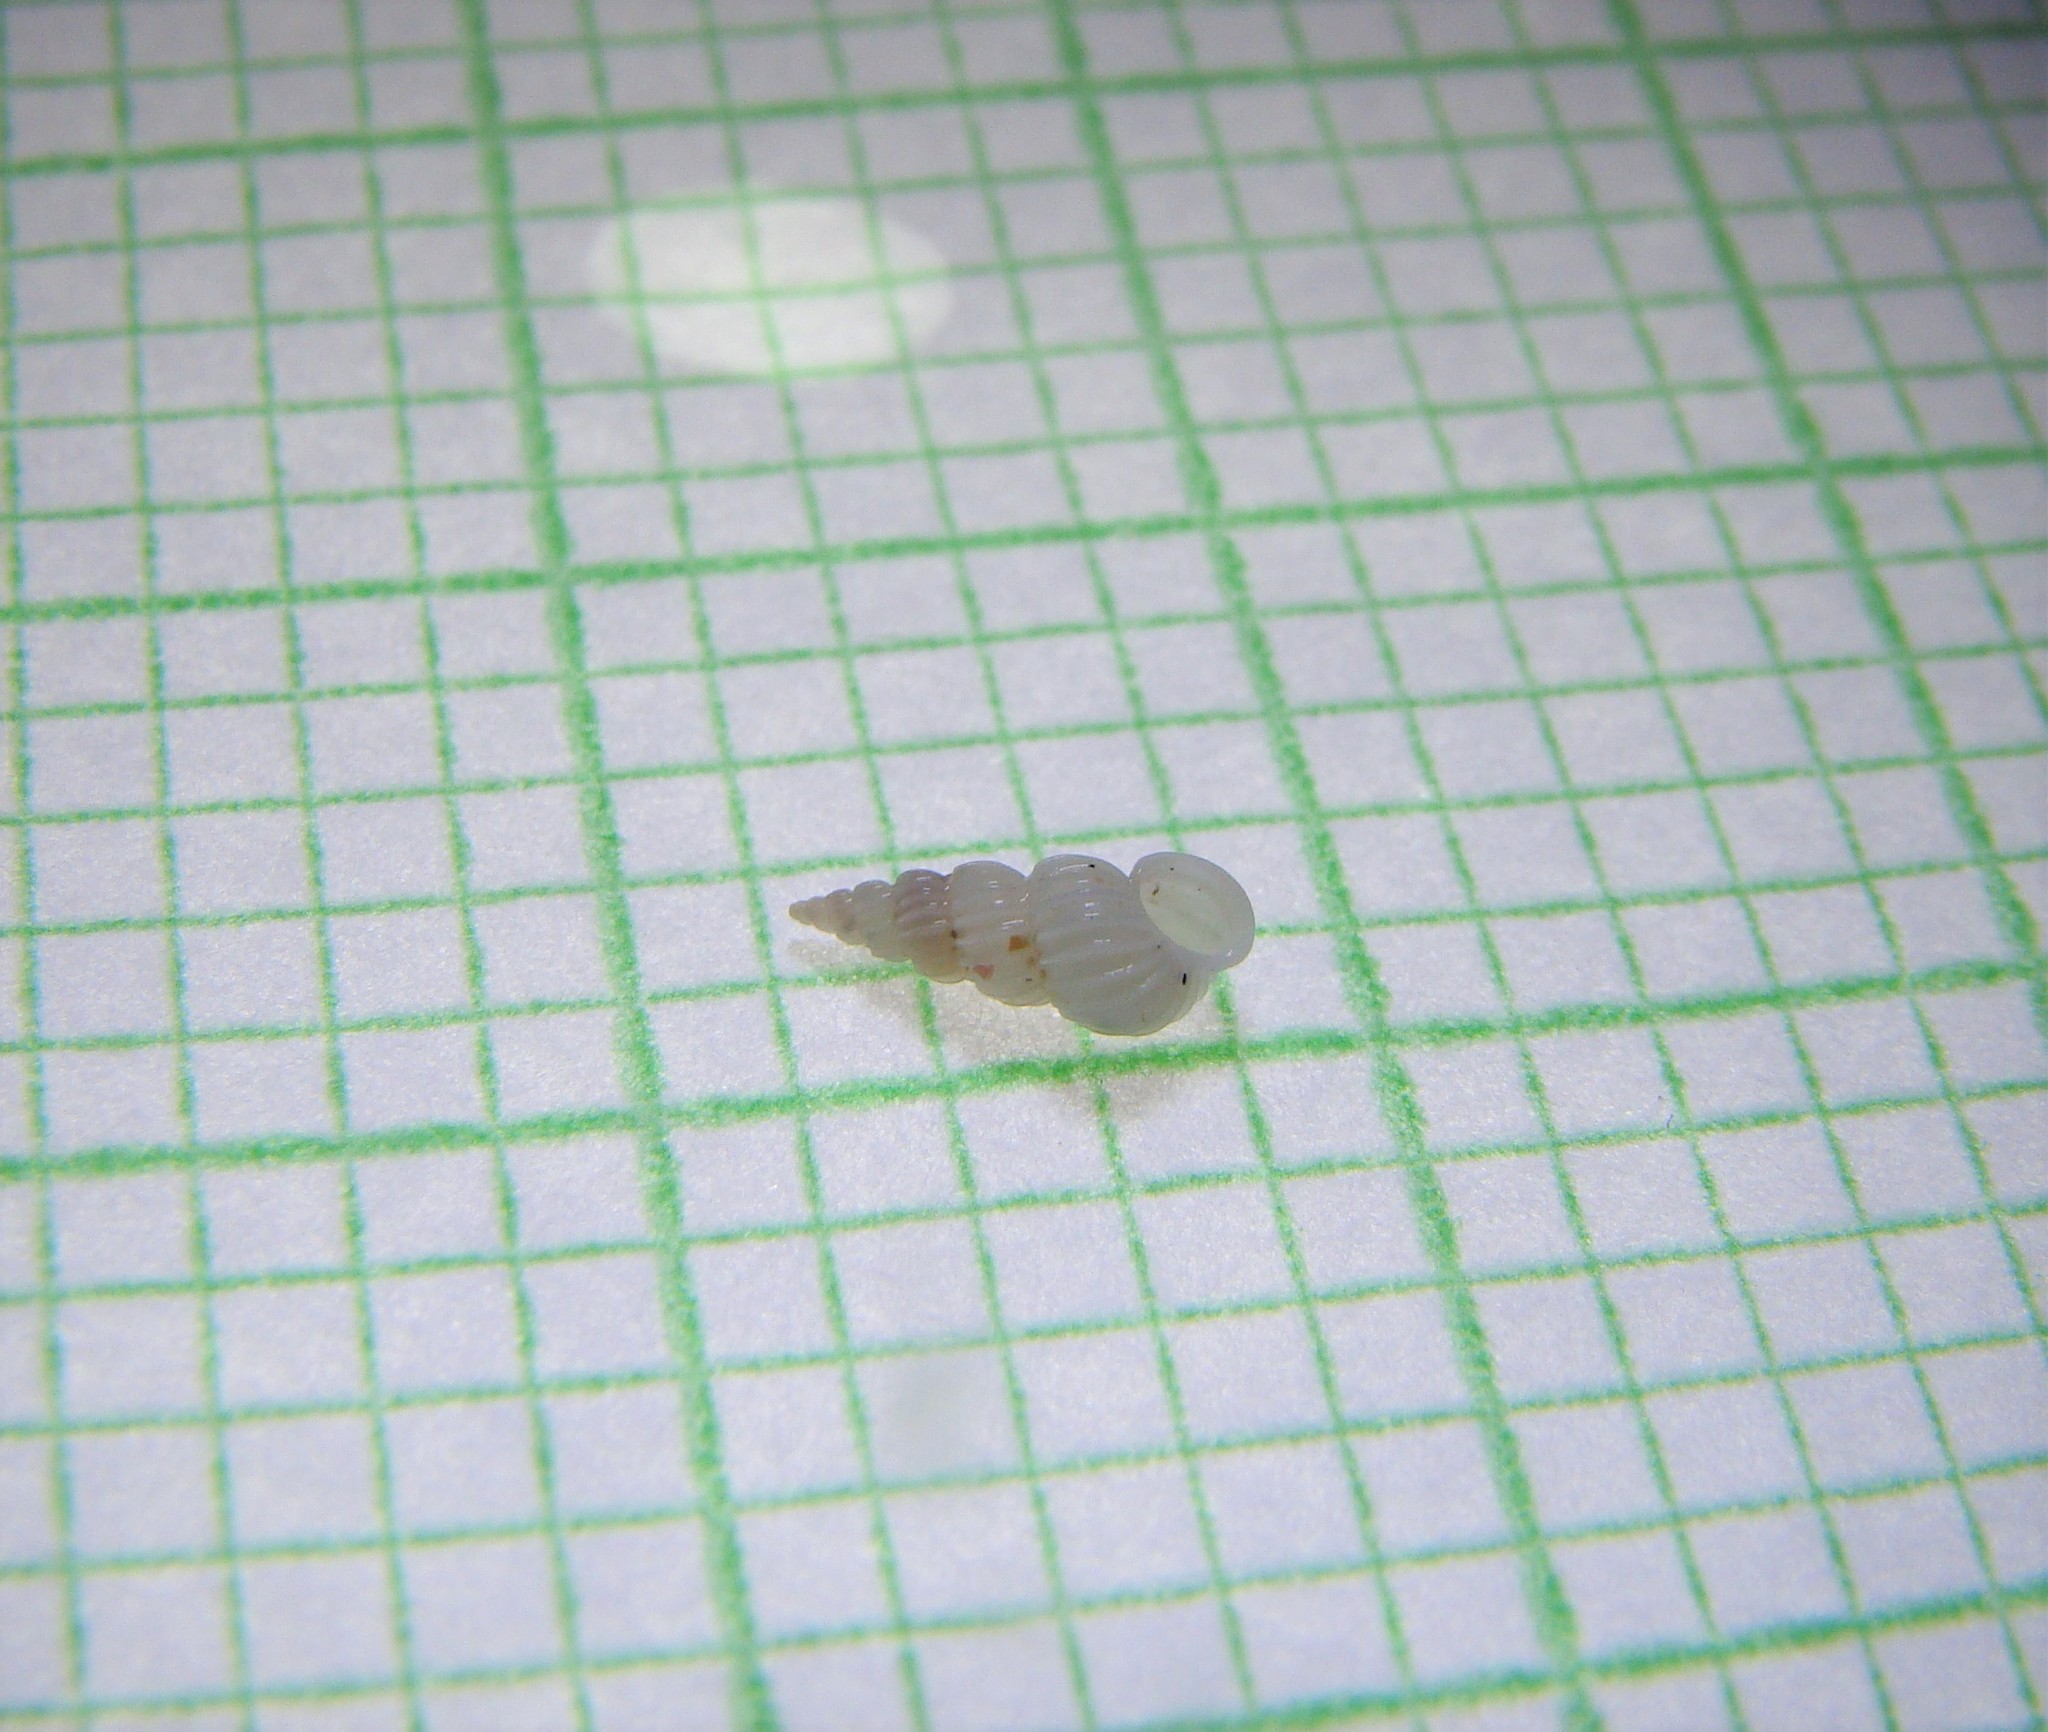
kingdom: Animalia
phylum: Mollusca
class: Gastropoda
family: Epitoniidae
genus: Epitonium
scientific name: Epitonium jukesianum
